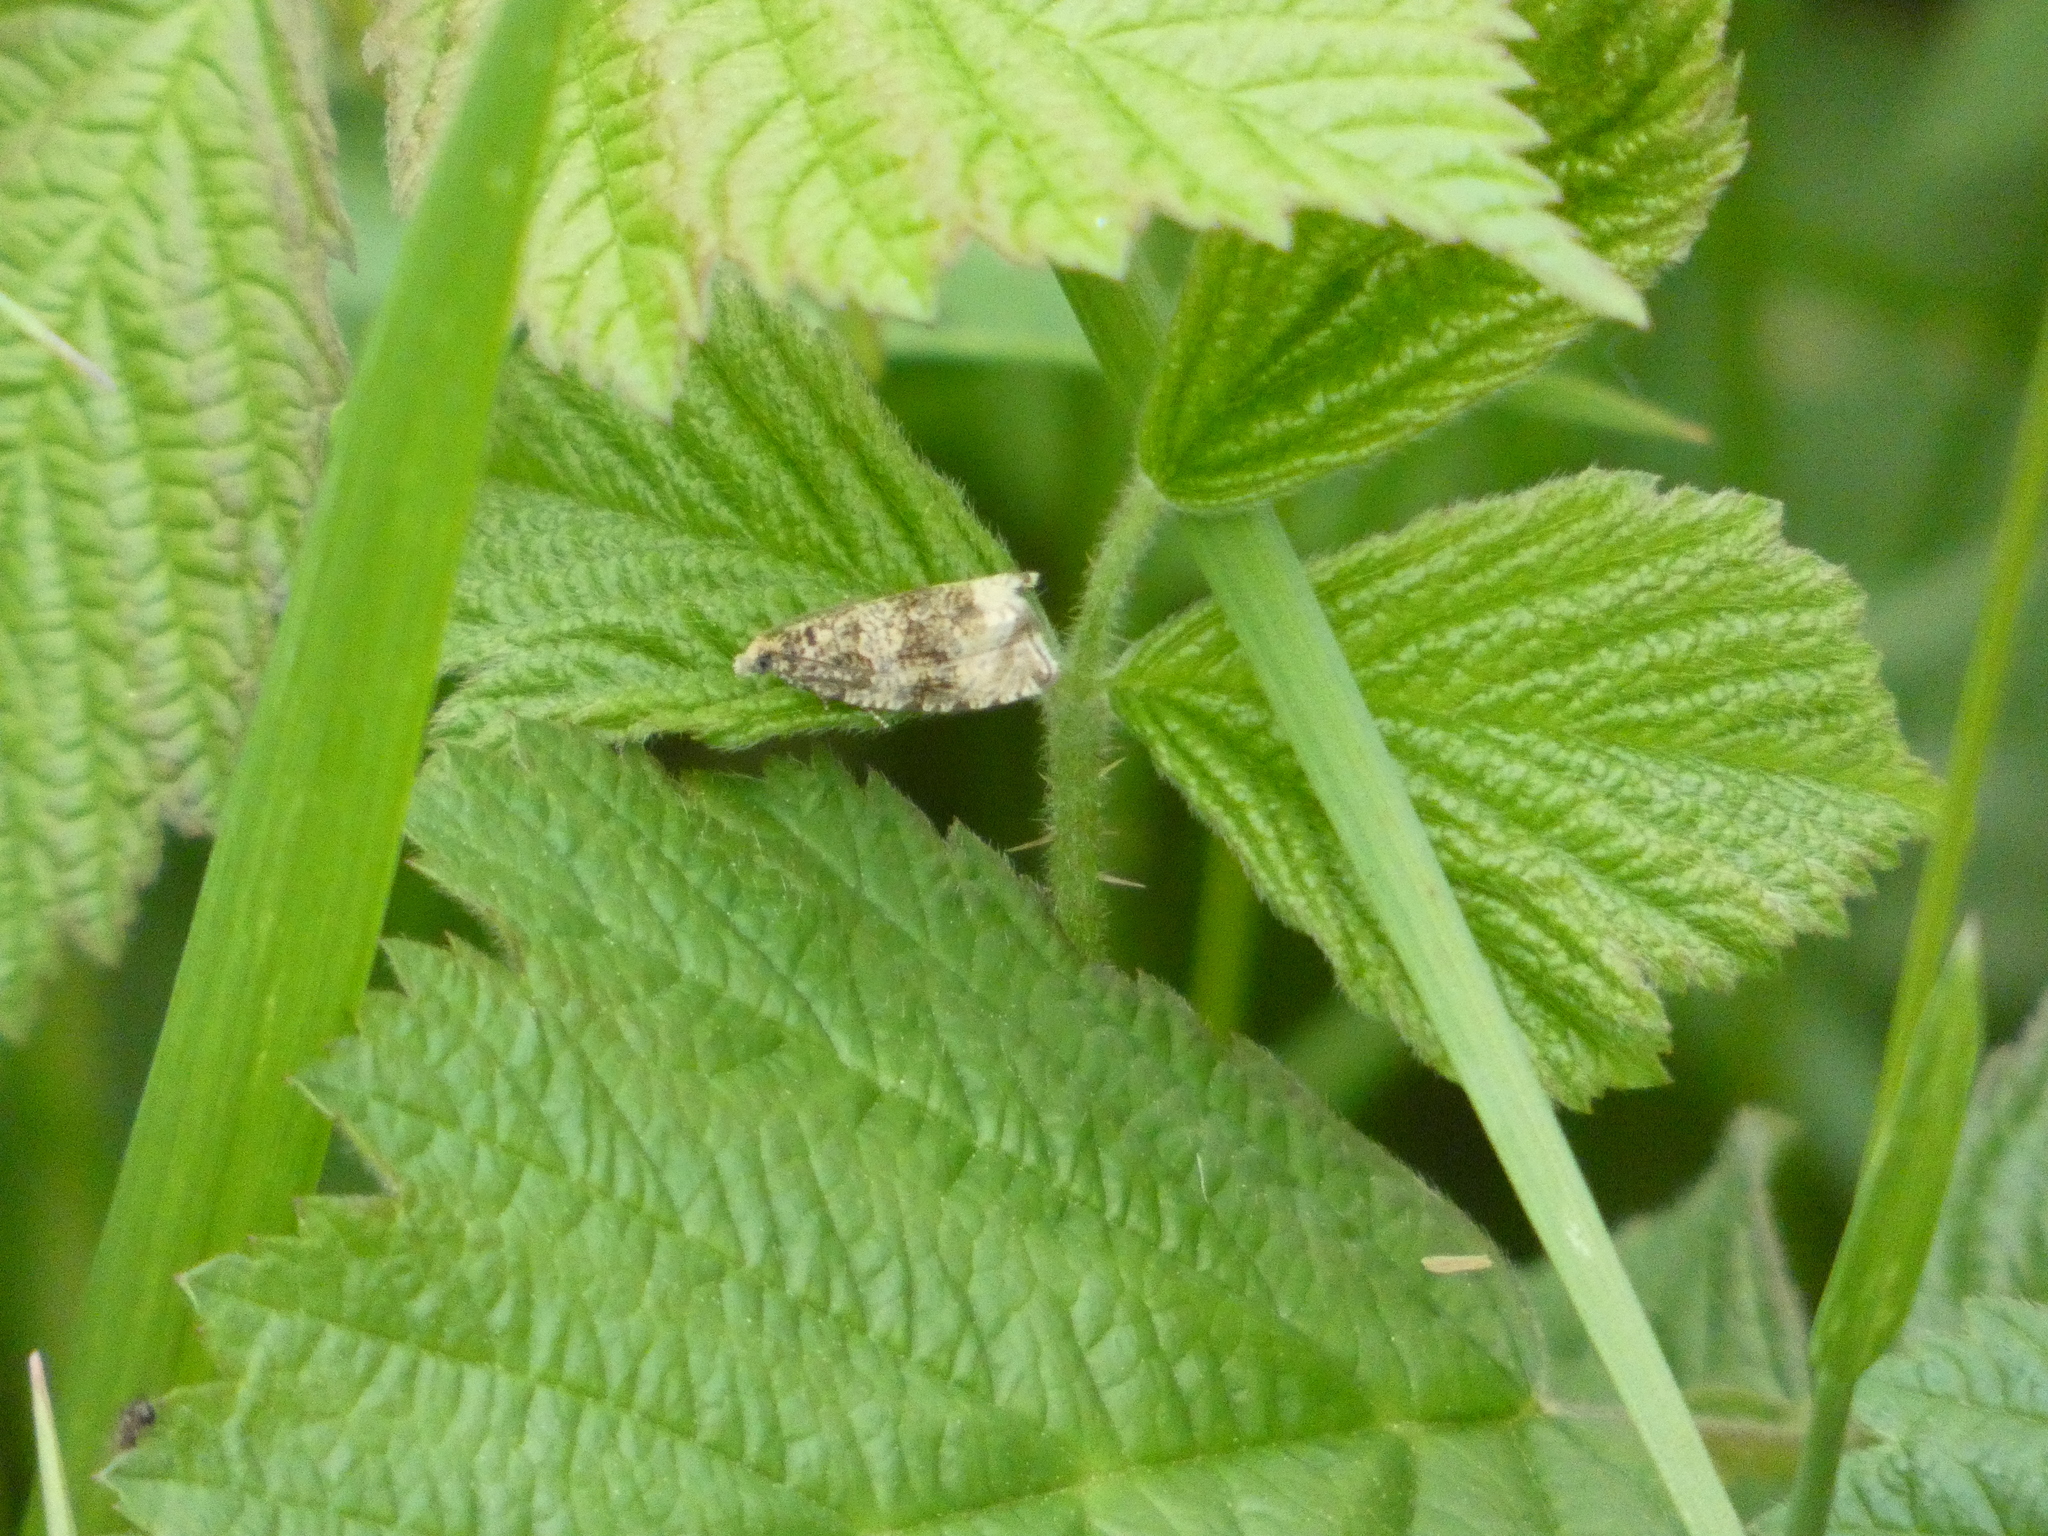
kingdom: Animalia
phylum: Arthropoda
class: Insecta
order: Lepidoptera
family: Tortricidae
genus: Syricoris
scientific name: Syricoris lacunana
